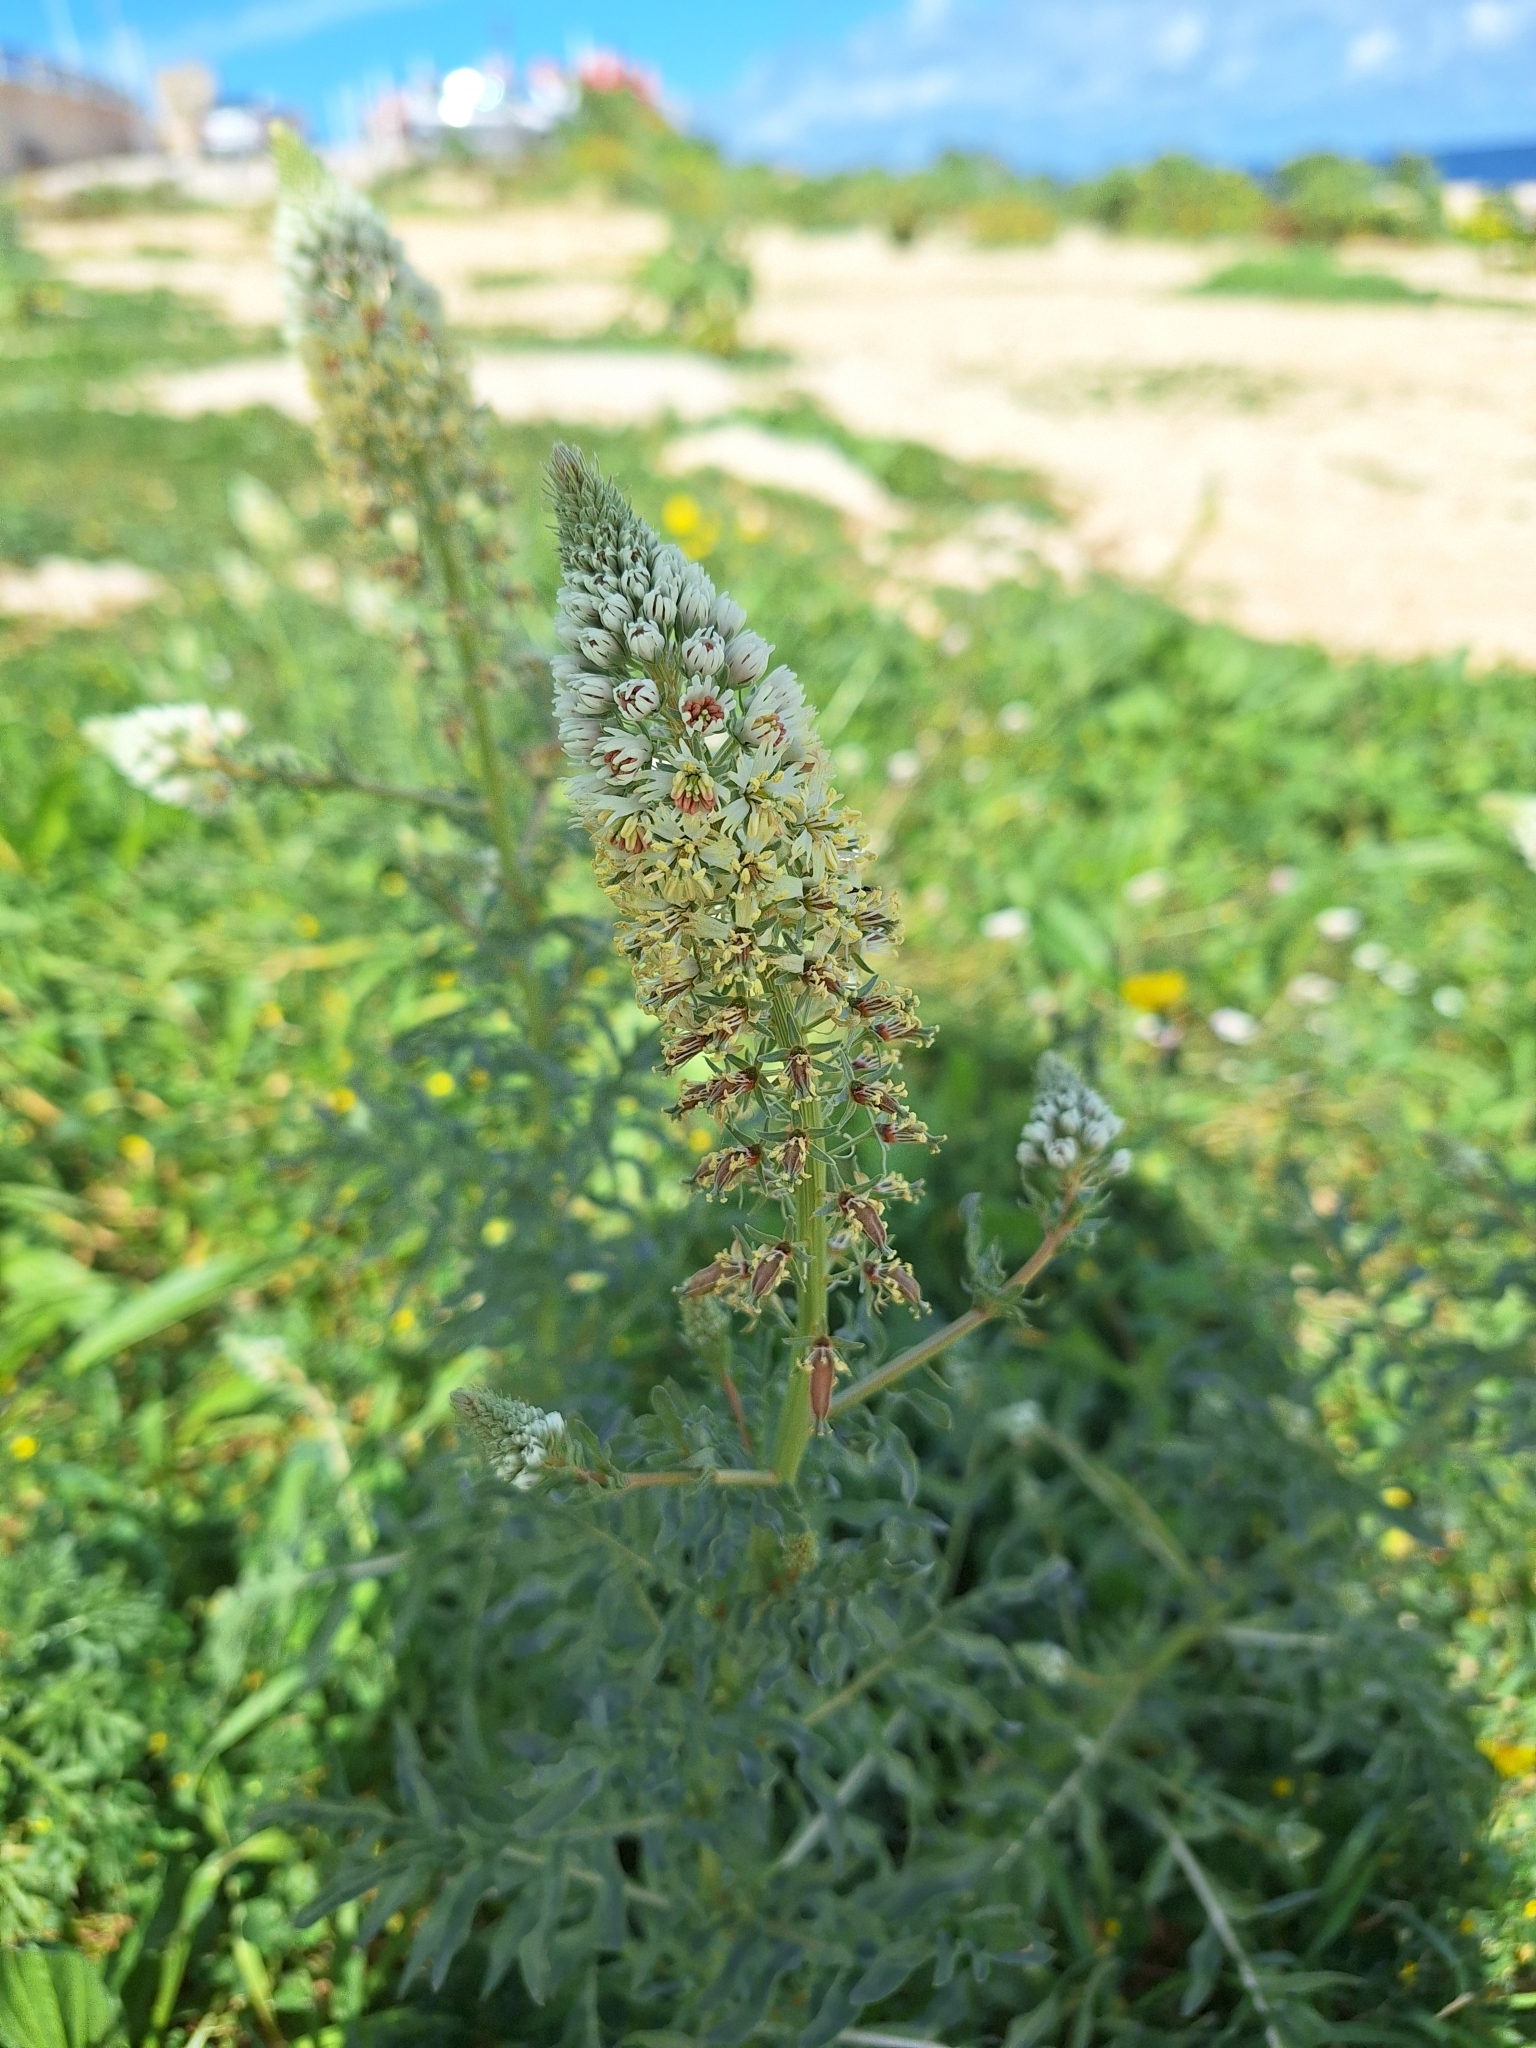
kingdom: Plantae
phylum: Tracheophyta
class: Magnoliopsida
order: Brassicales
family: Resedaceae
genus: Reseda
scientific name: Reseda alba
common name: White mignonette
